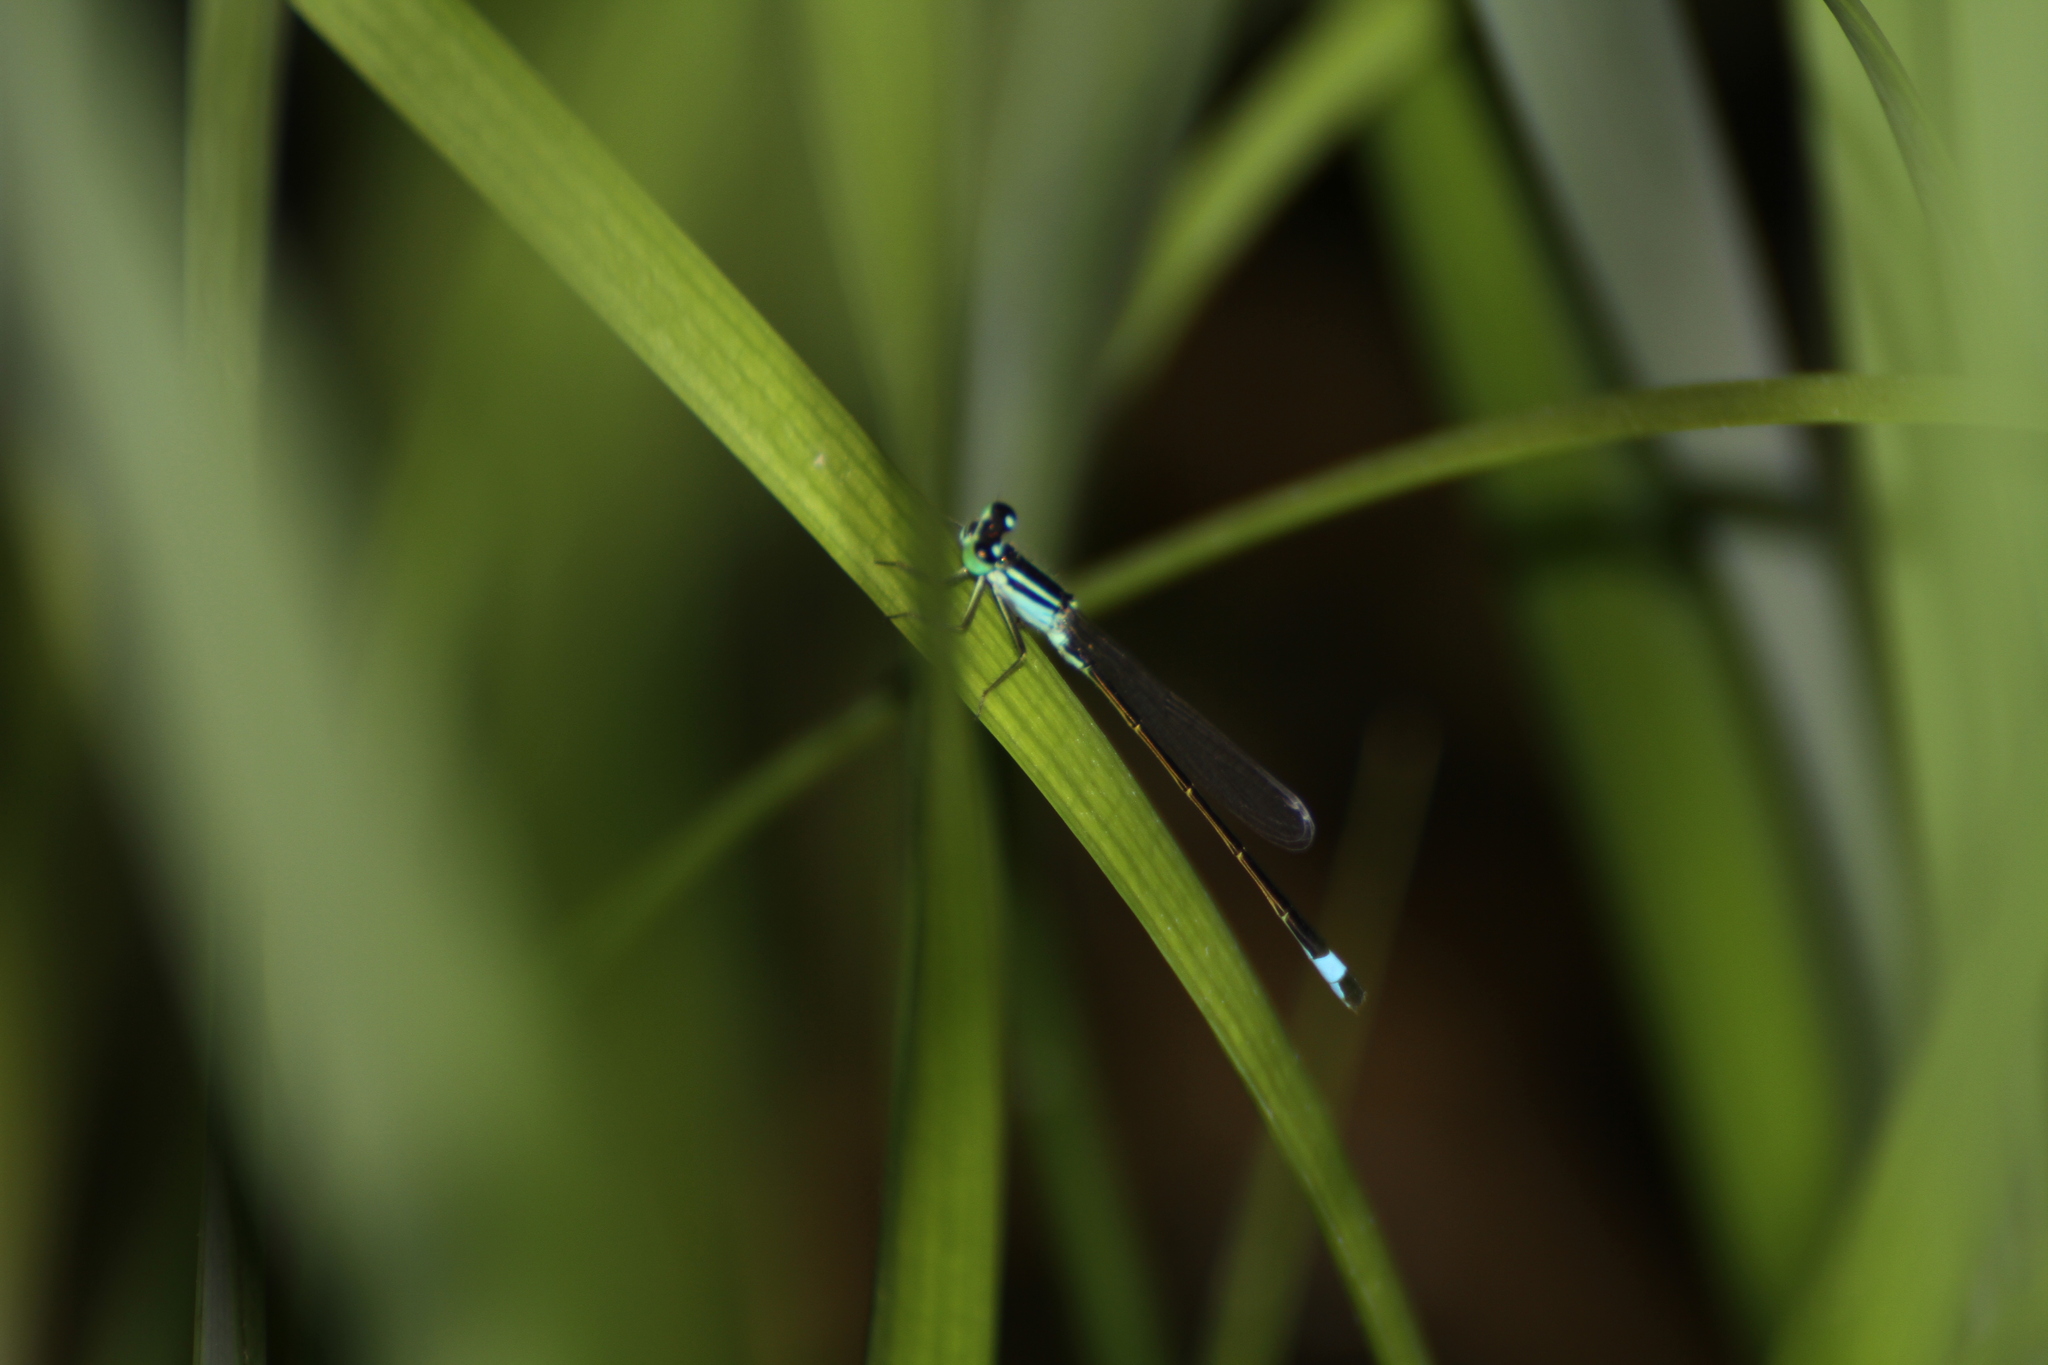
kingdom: Animalia
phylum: Arthropoda
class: Insecta
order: Odonata
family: Coenagrionidae
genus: Ischnura
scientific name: Ischnura elegans
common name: Blue-tailed damselfly
